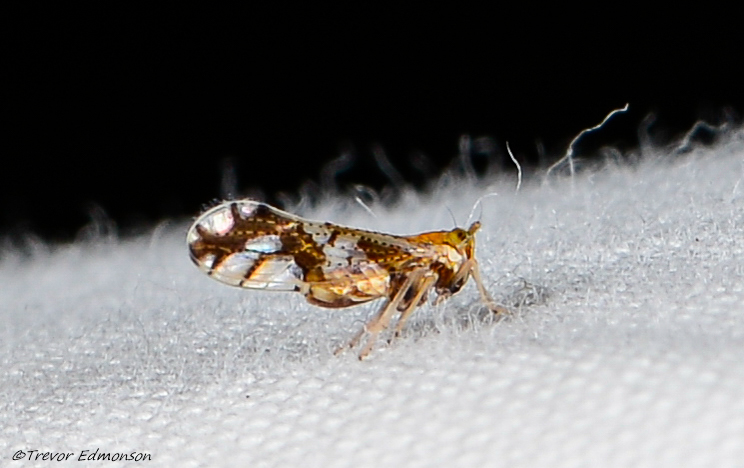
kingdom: Animalia
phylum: Arthropoda
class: Insecta
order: Hemiptera
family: Delphacidae
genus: Liburniella
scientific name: Liburniella ornata
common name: Ornate planthopper
